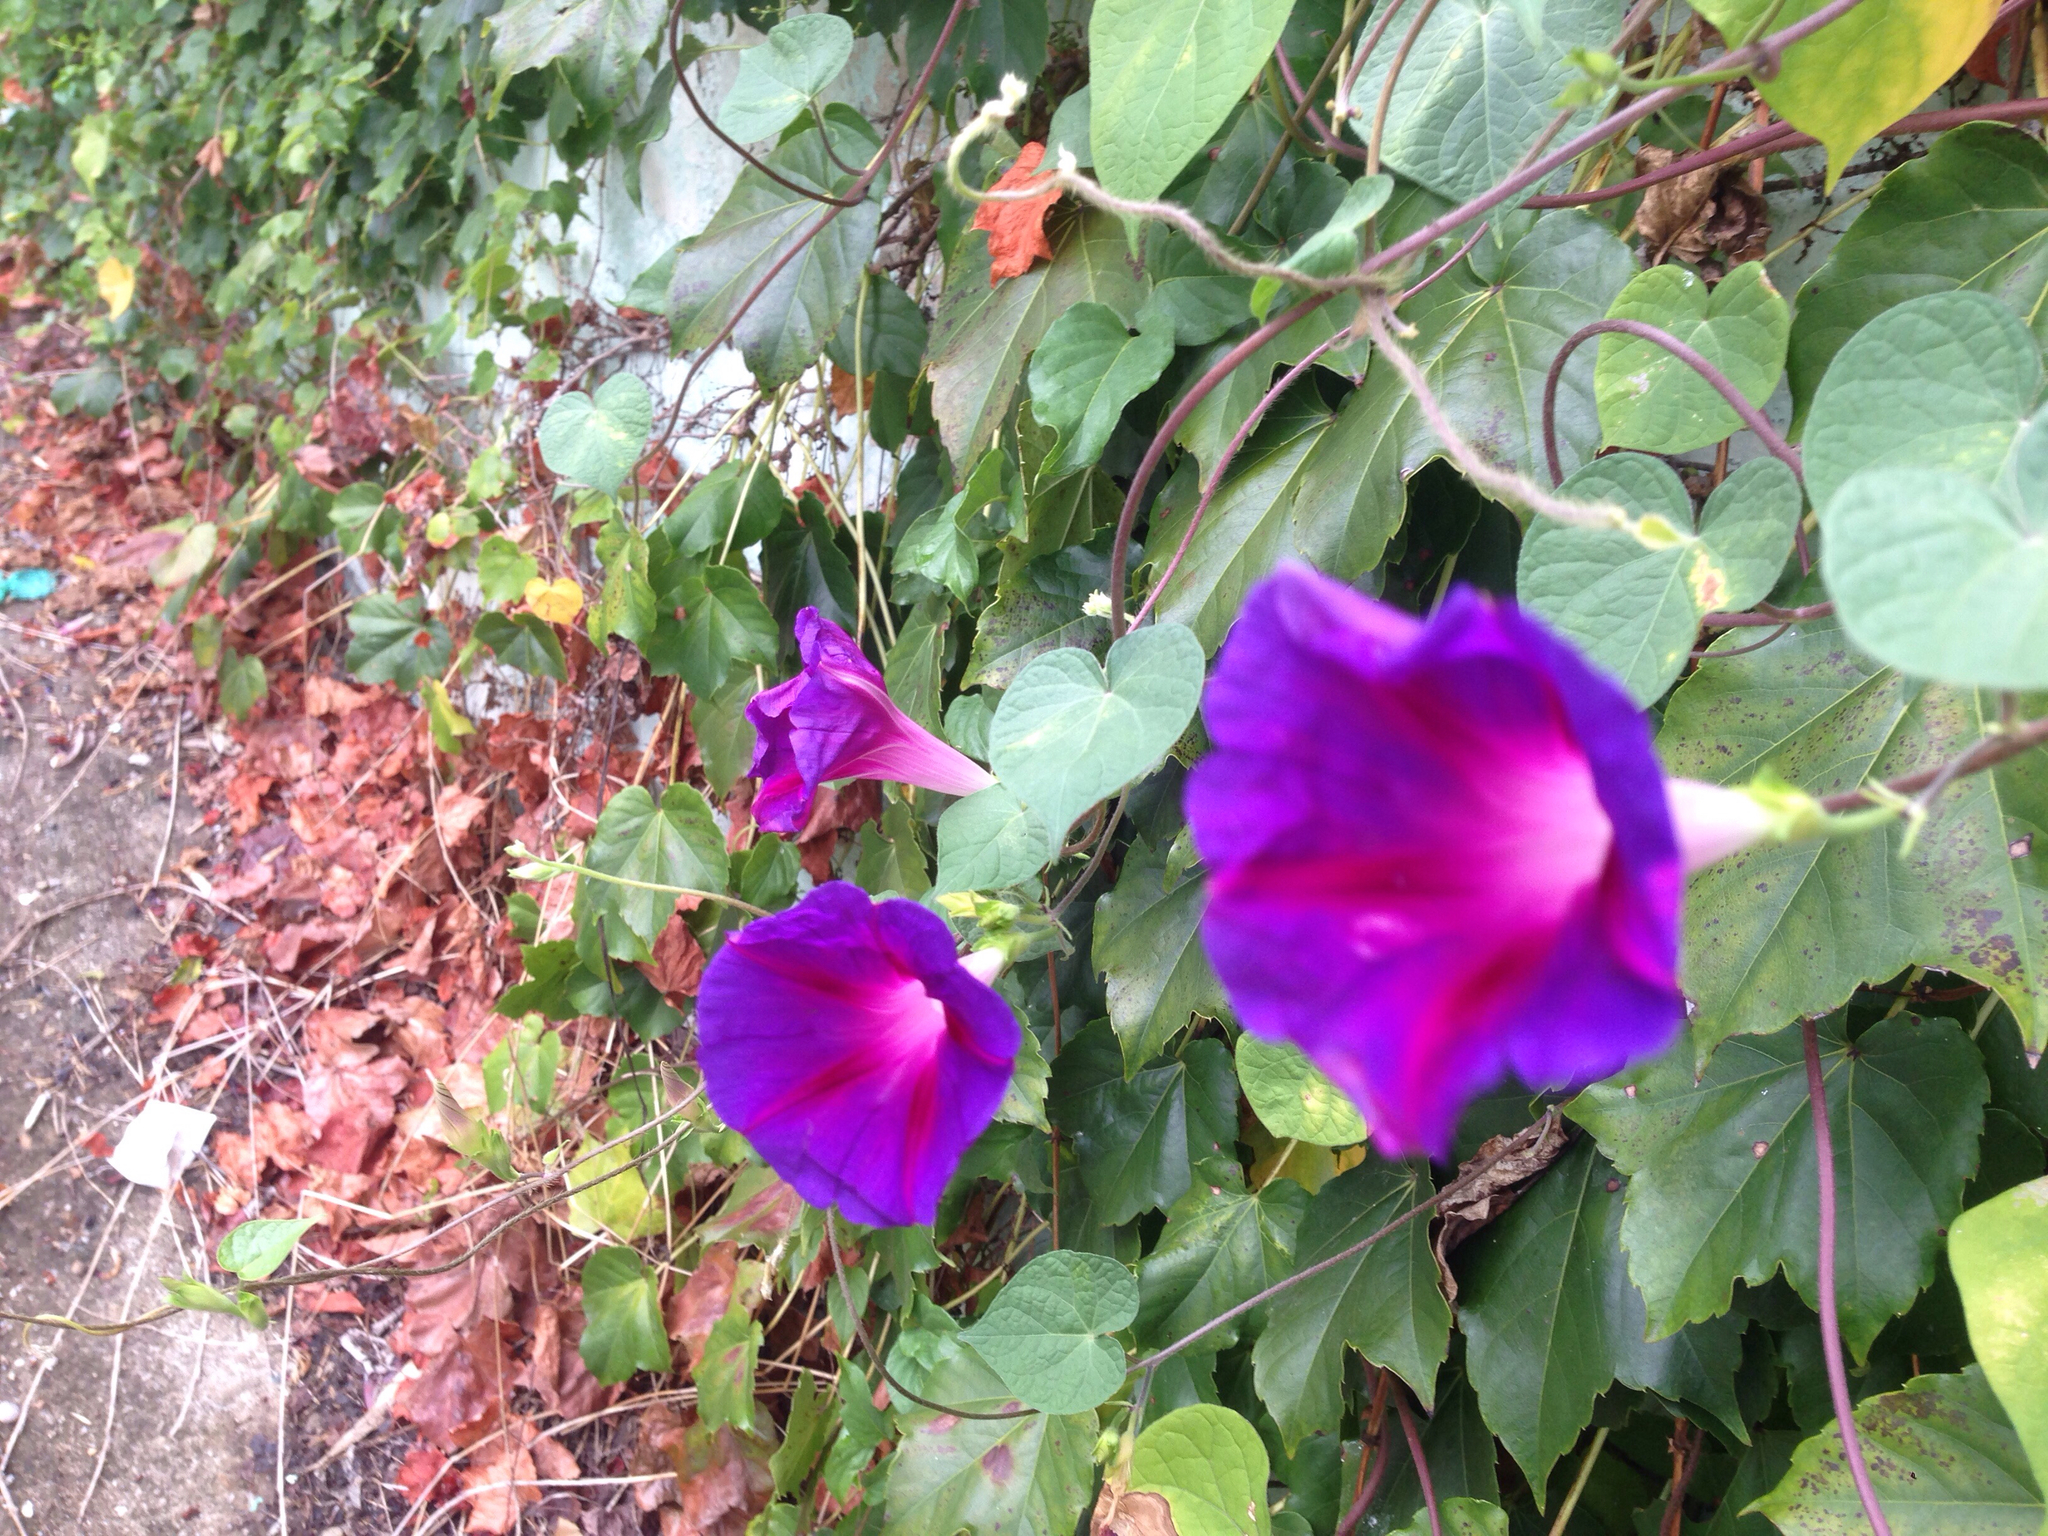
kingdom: Plantae
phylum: Tracheophyta
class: Magnoliopsida
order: Solanales
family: Convolvulaceae
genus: Ipomoea
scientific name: Ipomoea purpurea
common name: Common morning-glory
